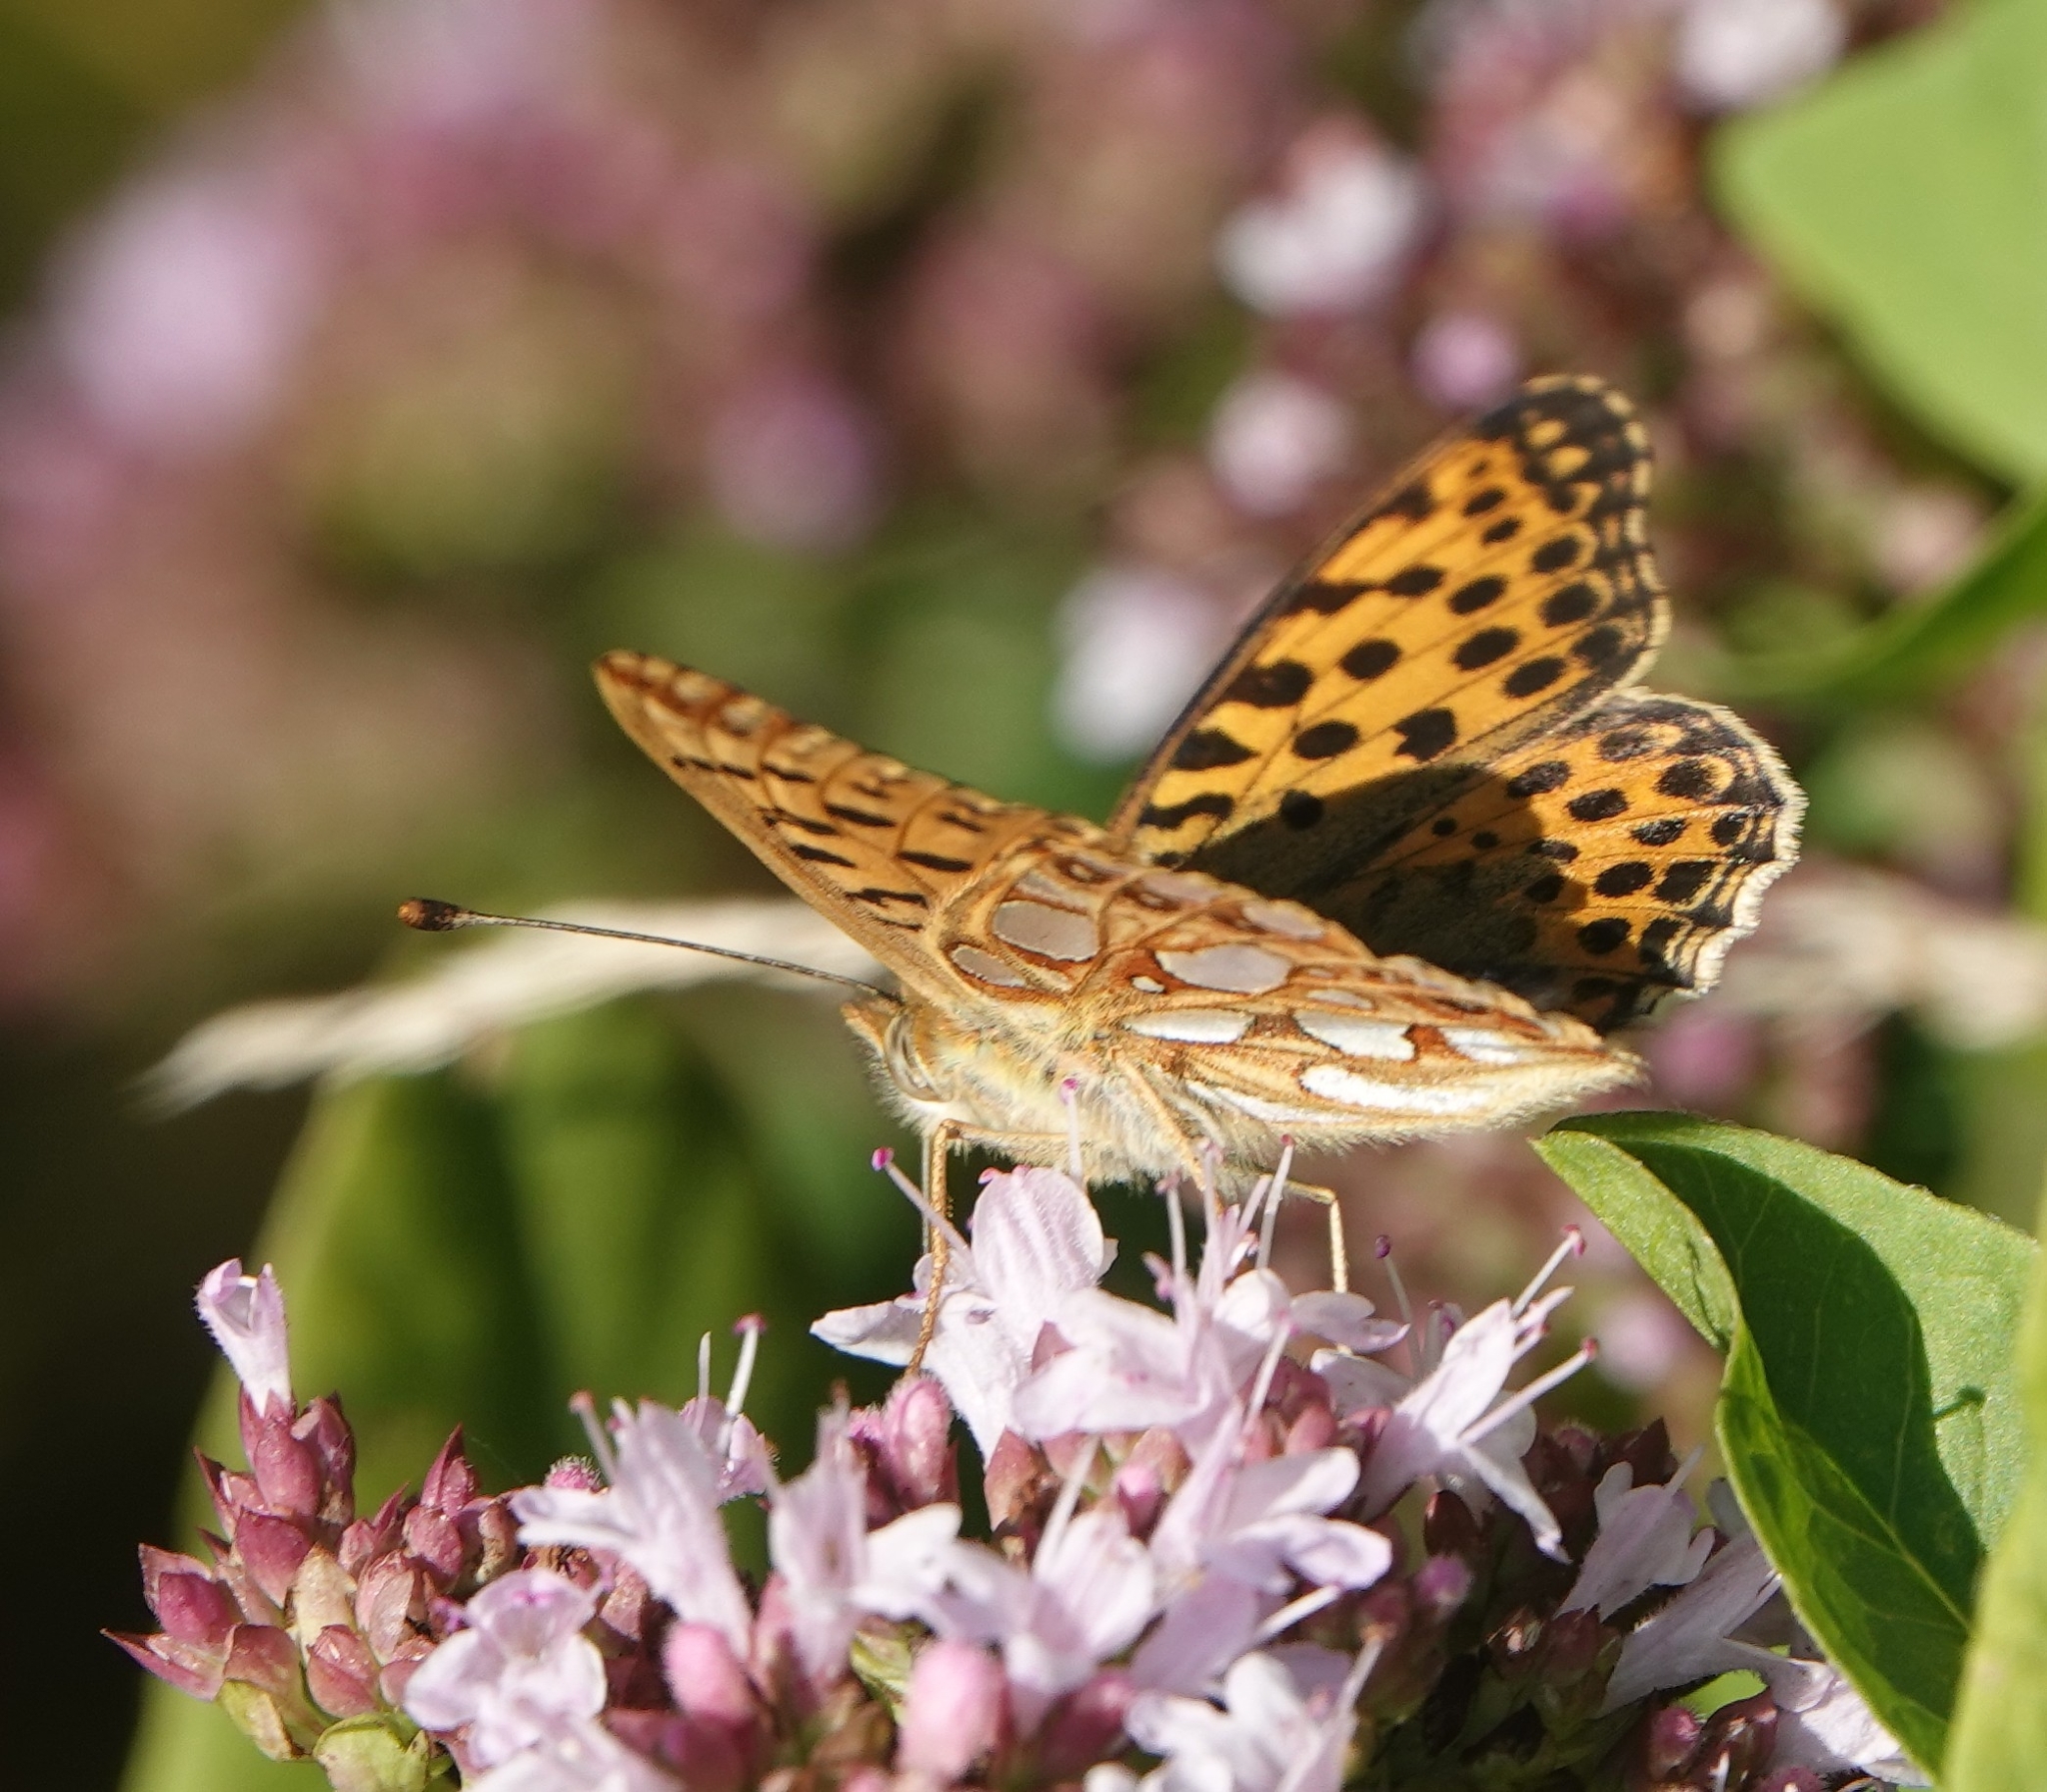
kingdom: Animalia
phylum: Arthropoda
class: Insecta
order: Lepidoptera
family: Nymphalidae
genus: Issoria
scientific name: Issoria lathonia
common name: Queen of spain fritillary
